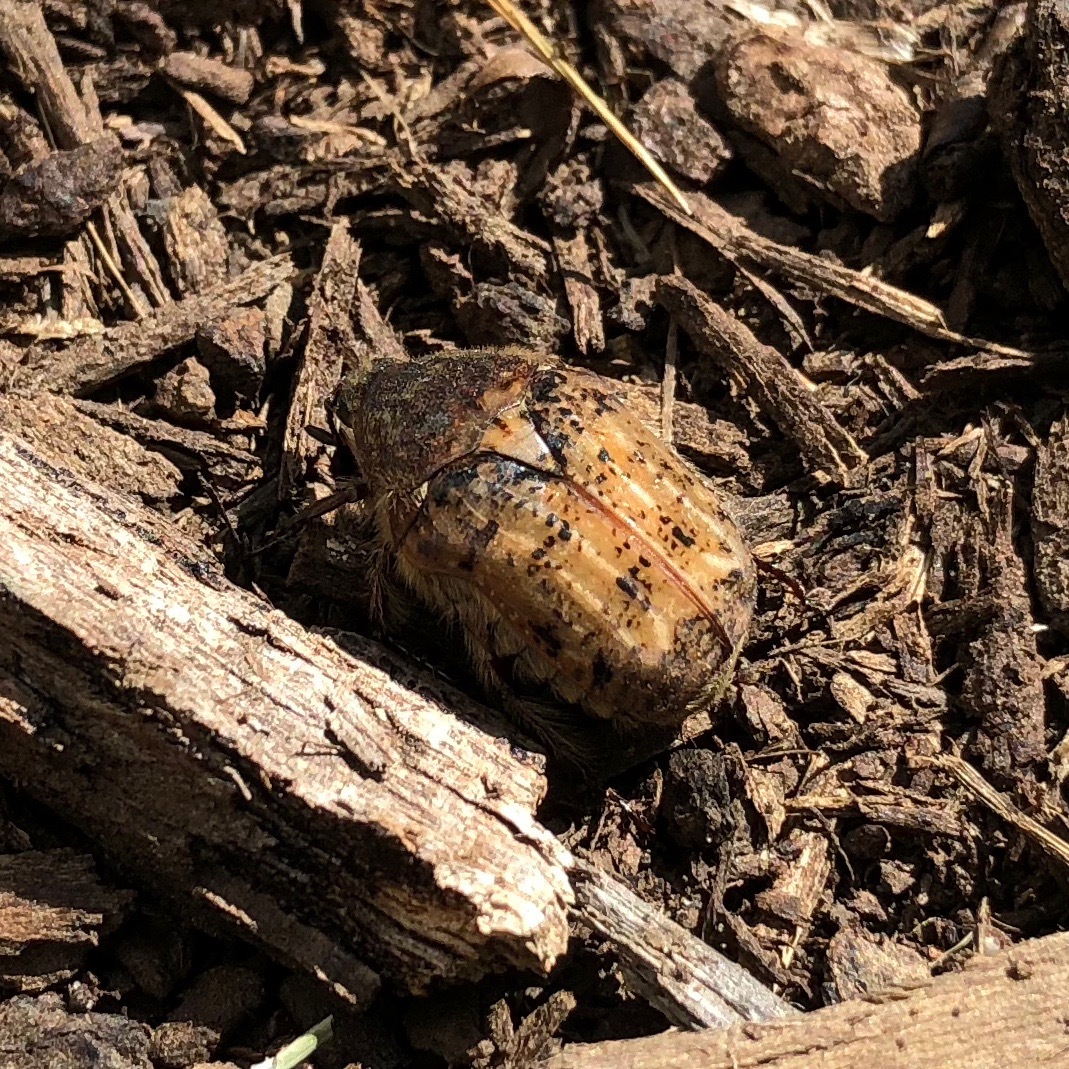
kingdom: Animalia
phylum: Arthropoda
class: Insecta
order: Coleoptera
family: Scarabaeidae
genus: Euphoria
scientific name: Euphoria inda
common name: Bumble flower beetle
